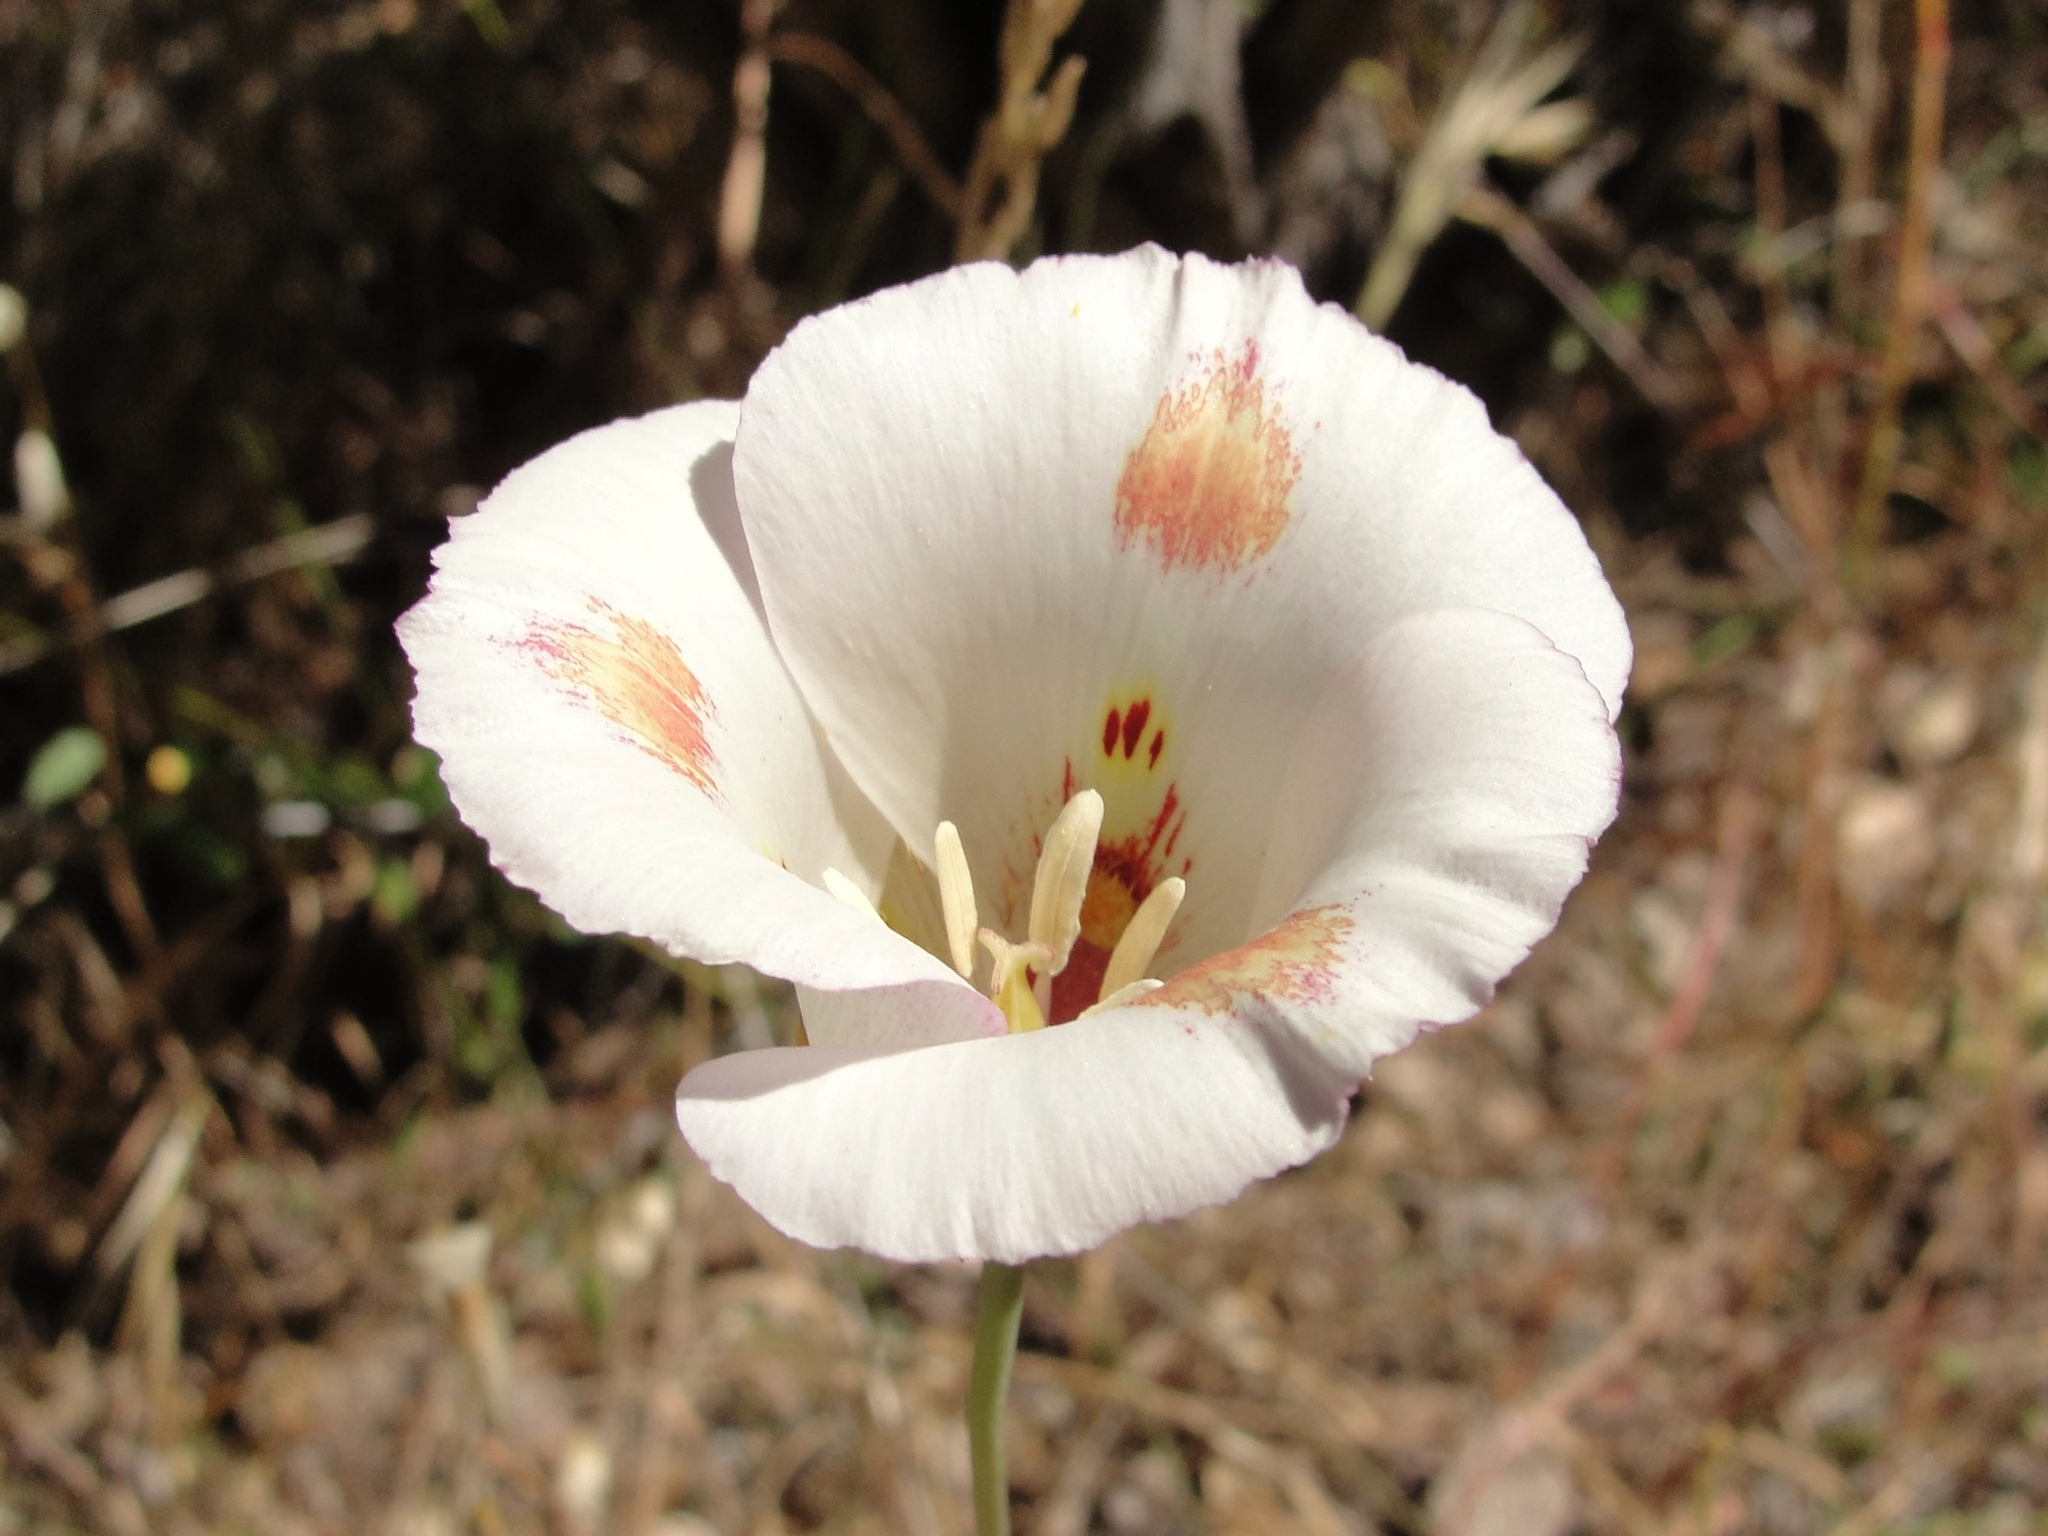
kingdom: Plantae
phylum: Tracheophyta
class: Liliopsida
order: Liliales
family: Liliaceae
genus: Calochortus
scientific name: Calochortus venustus
